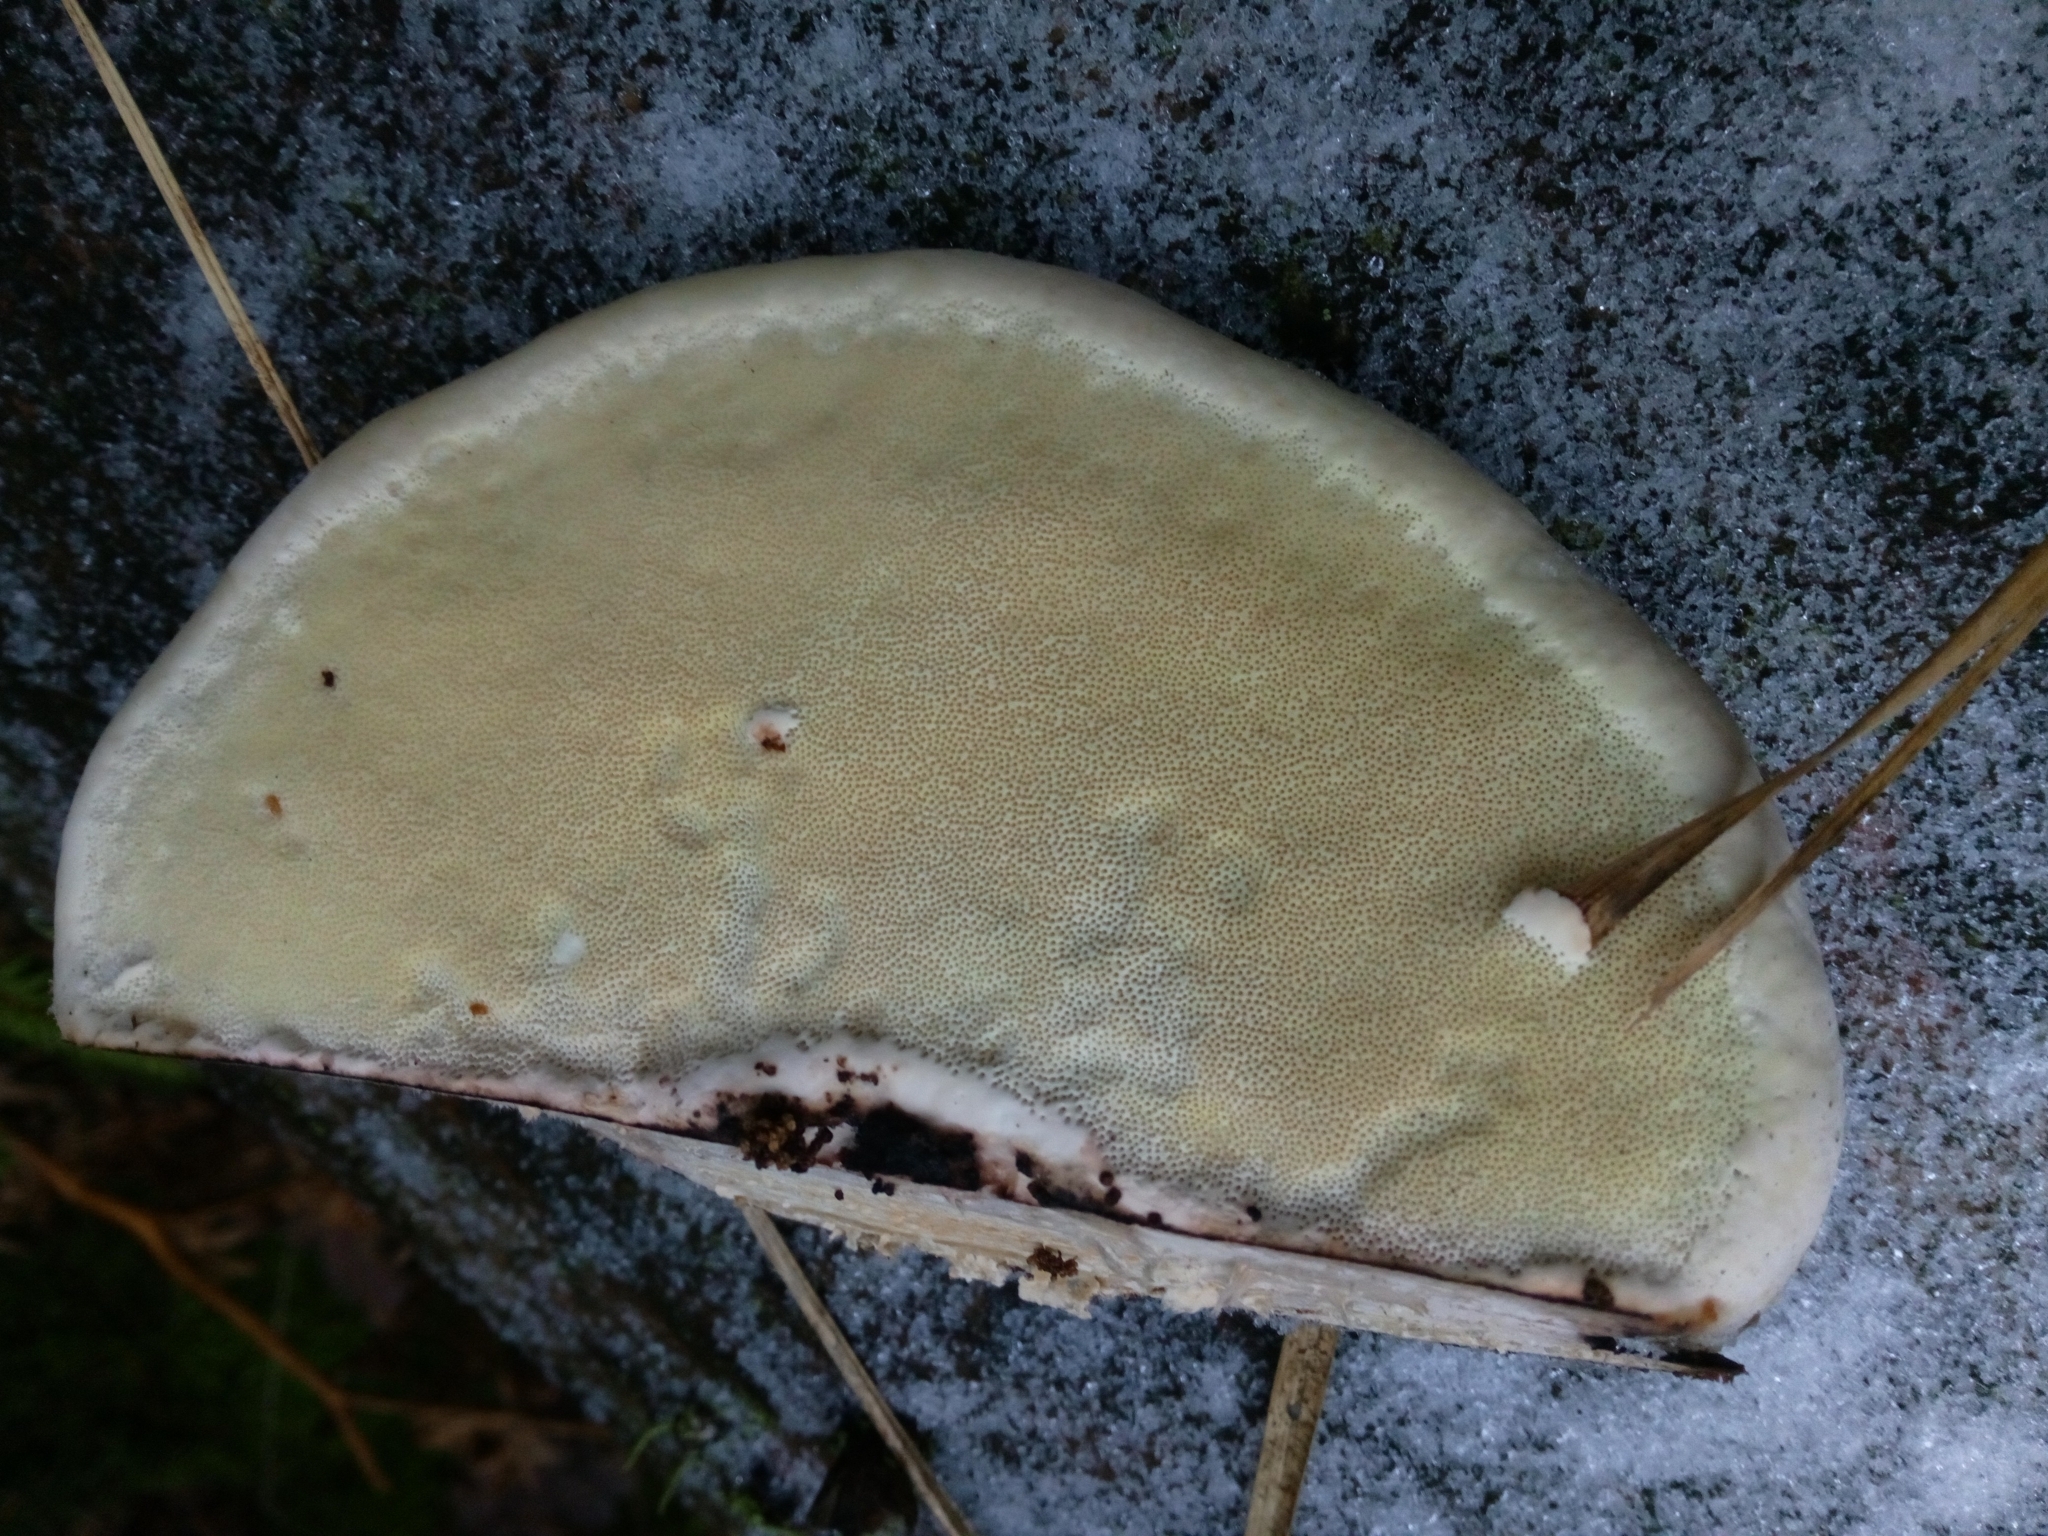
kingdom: Fungi
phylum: Basidiomycota
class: Agaricomycetes
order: Polyporales
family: Fomitopsidaceae
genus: Fomitopsis
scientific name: Fomitopsis pinicola
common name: Red-belted bracket
